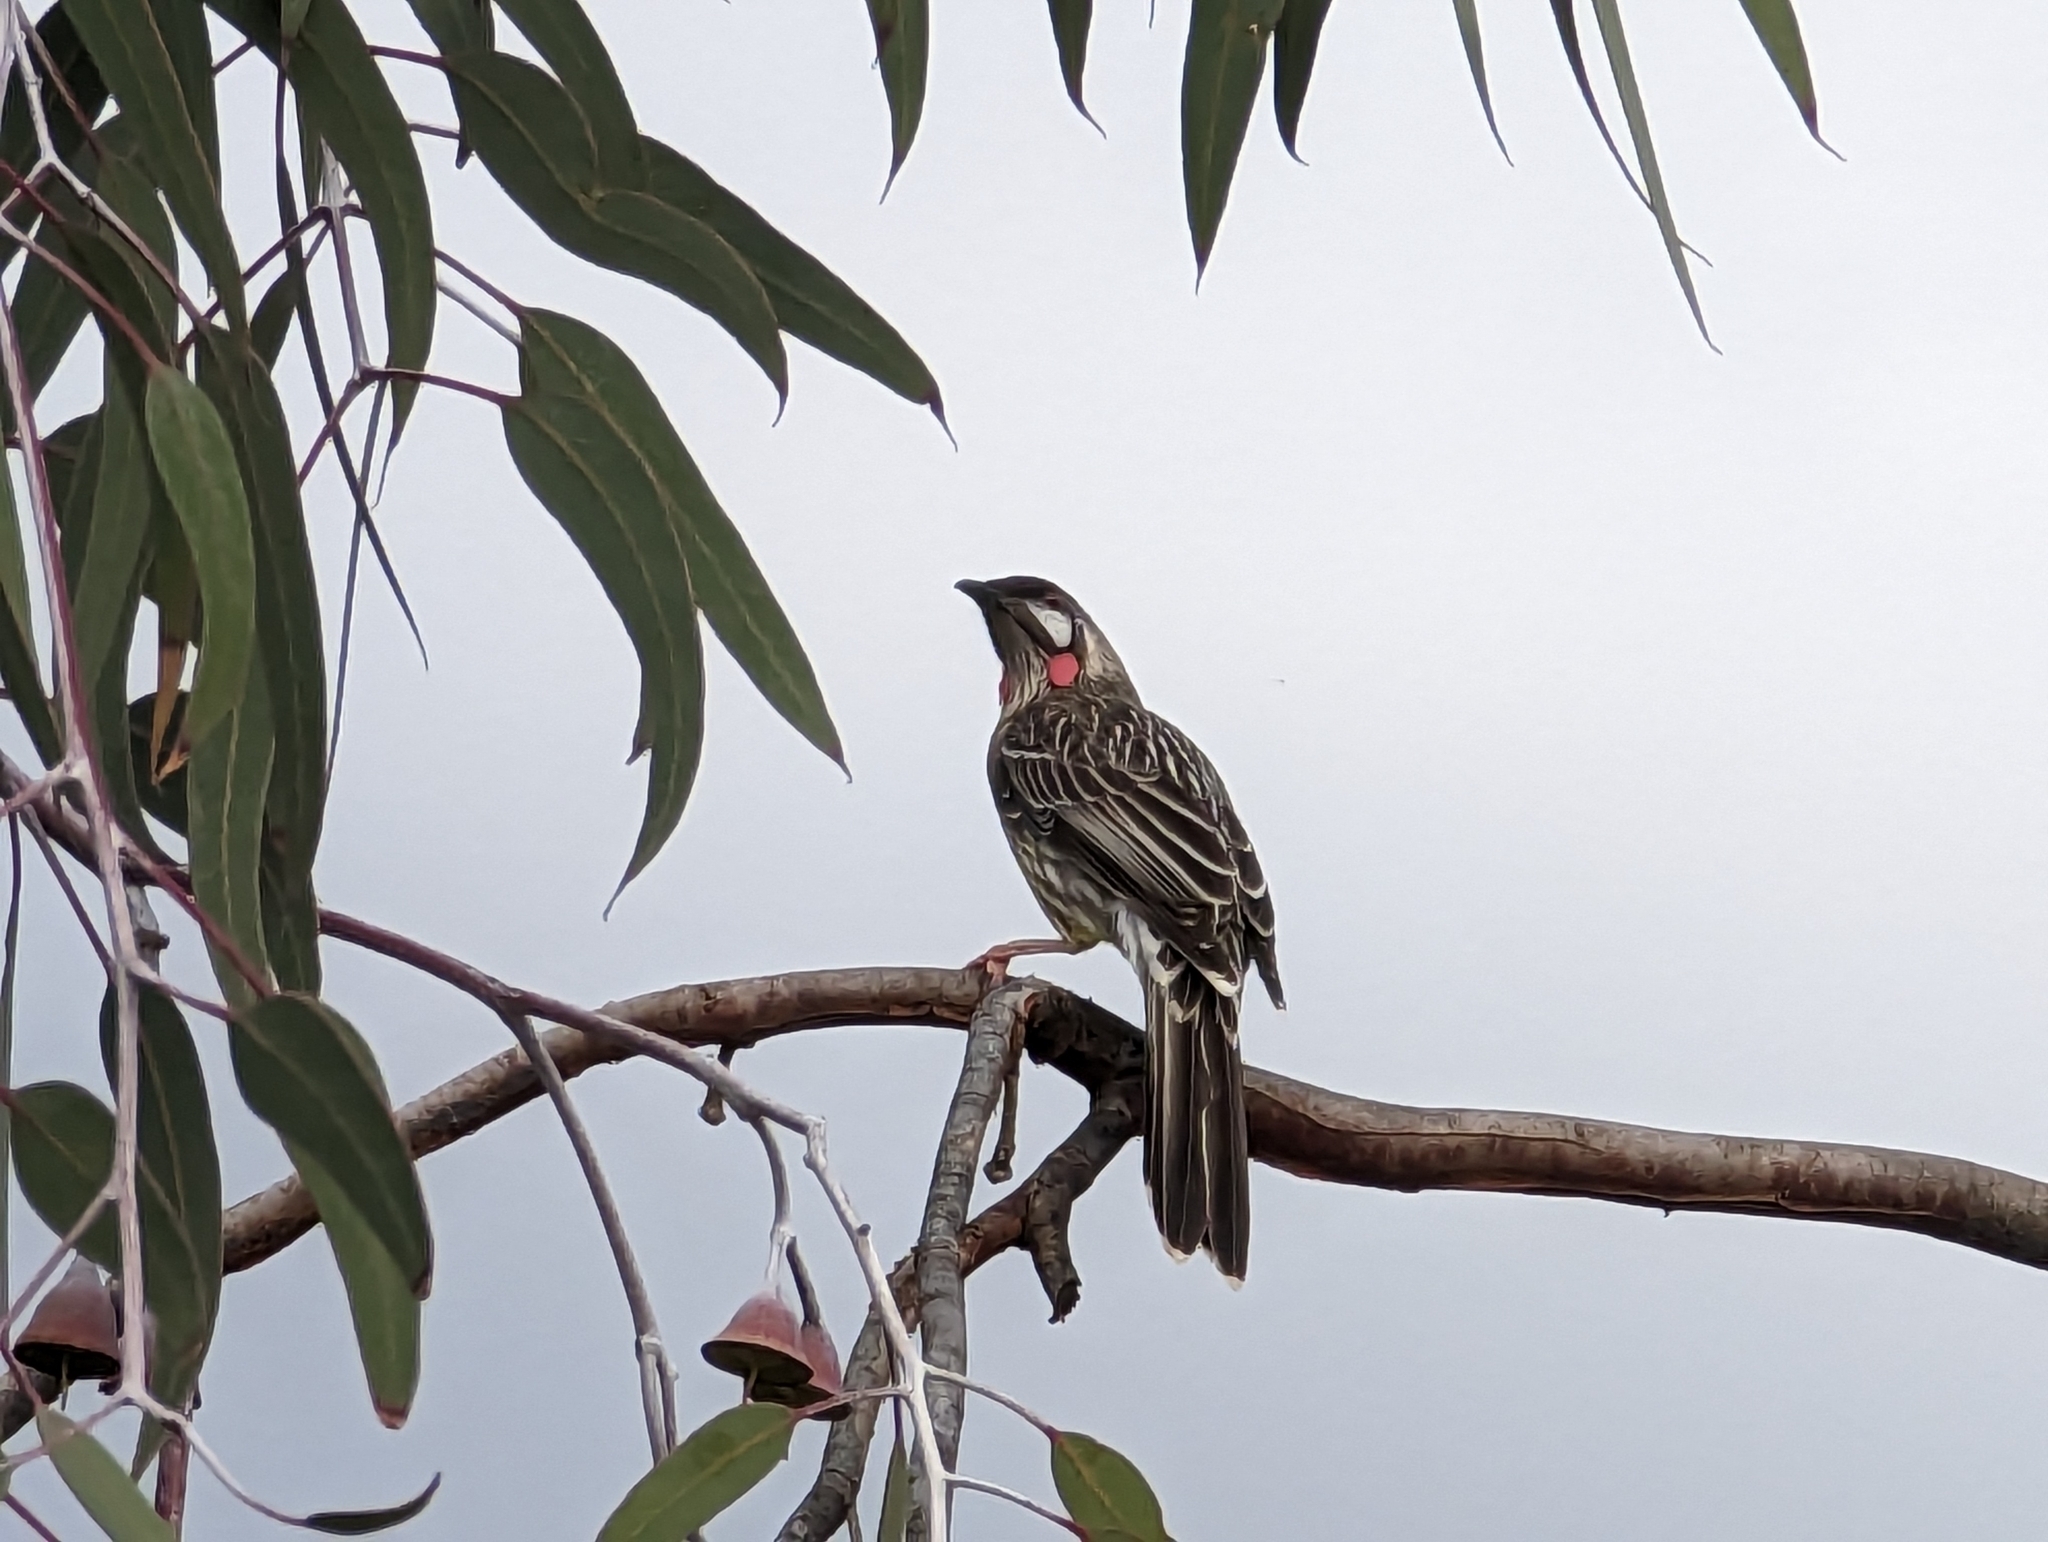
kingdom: Animalia
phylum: Chordata
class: Aves
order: Passeriformes
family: Meliphagidae
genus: Anthochaera
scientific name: Anthochaera carunculata
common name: Red wattlebird
